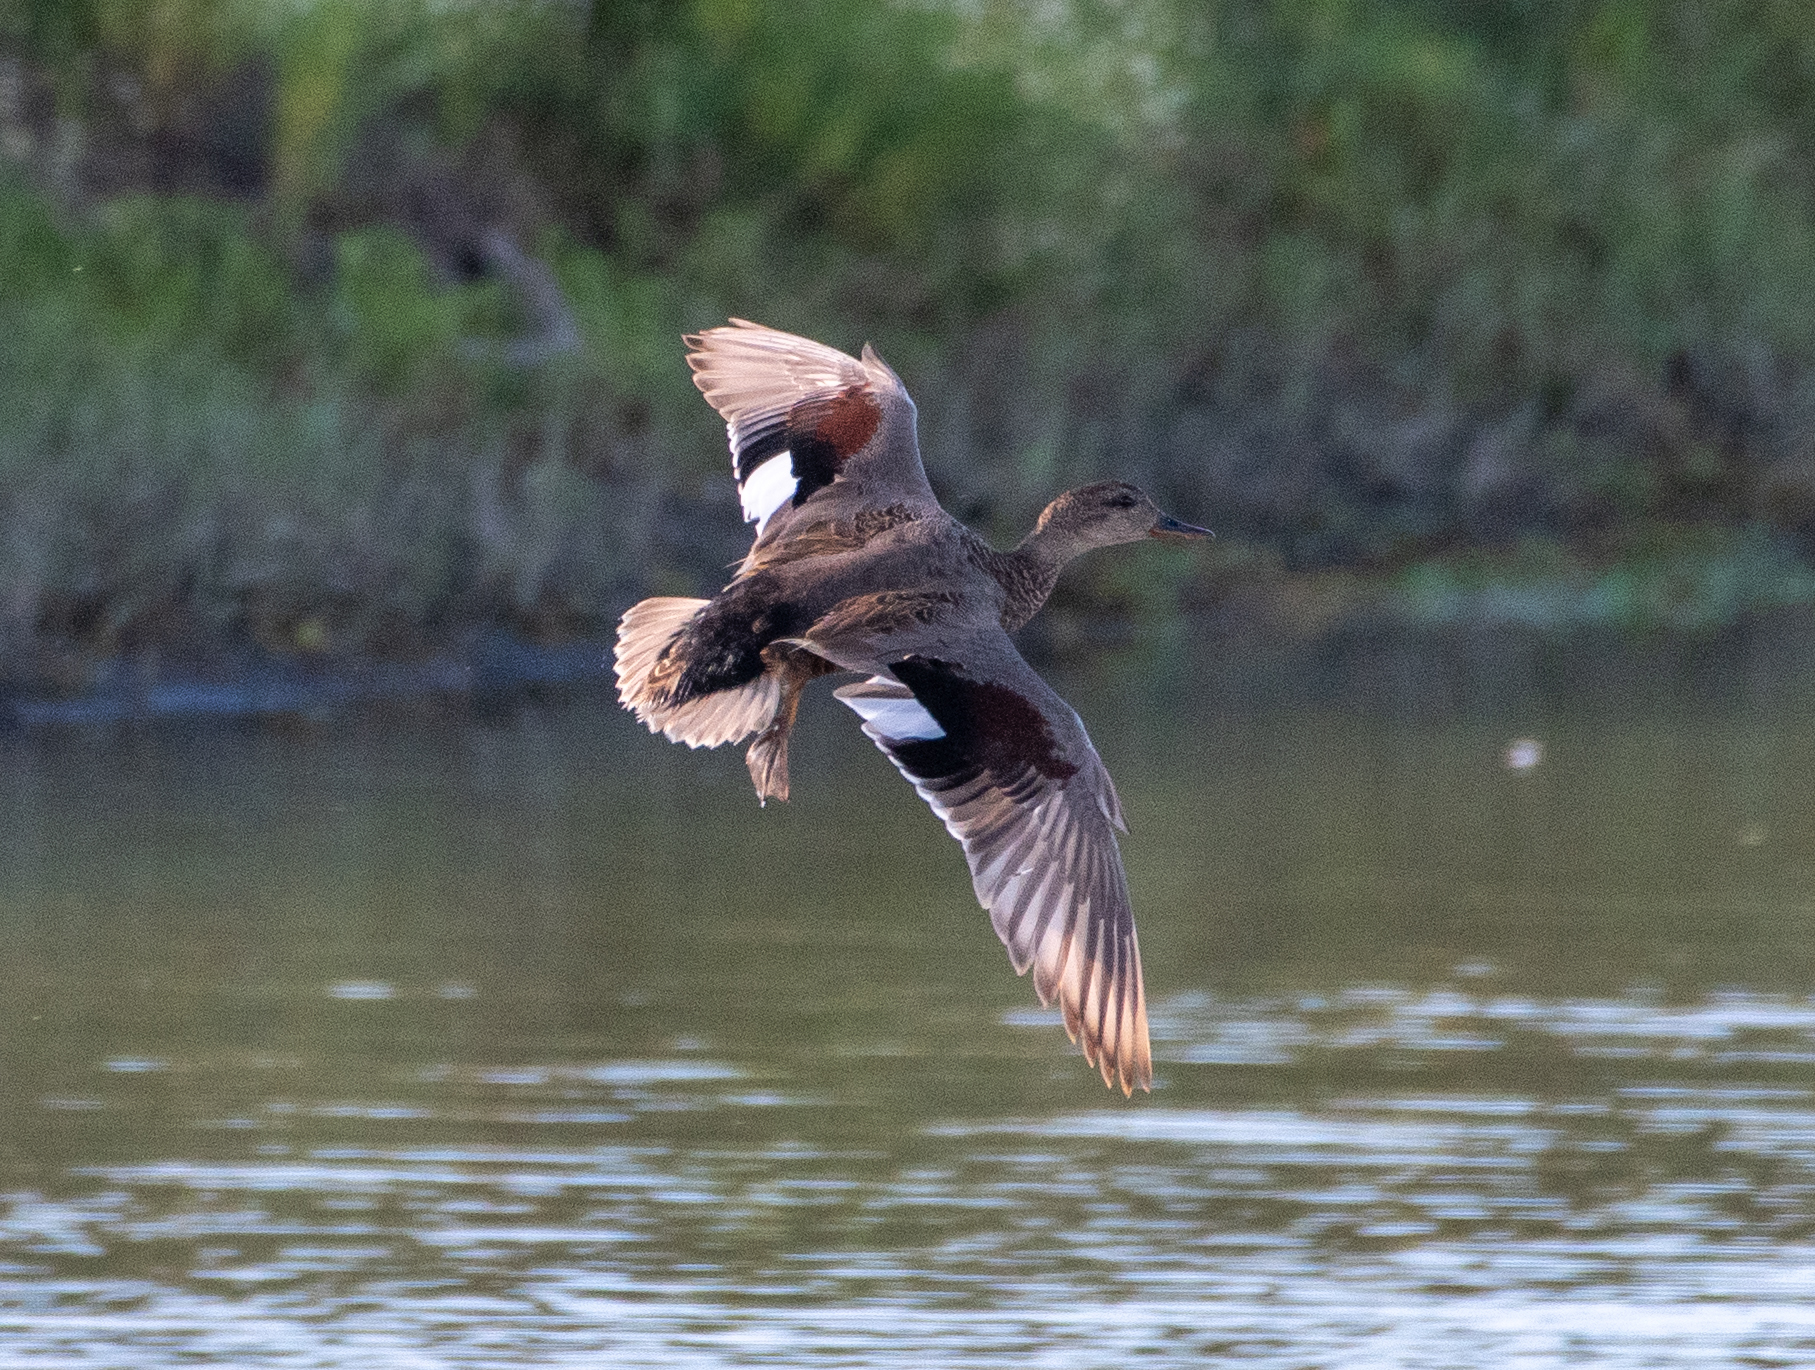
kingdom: Animalia
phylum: Chordata
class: Aves
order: Anseriformes
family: Anatidae
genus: Mareca
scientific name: Mareca strepera
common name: Gadwall
